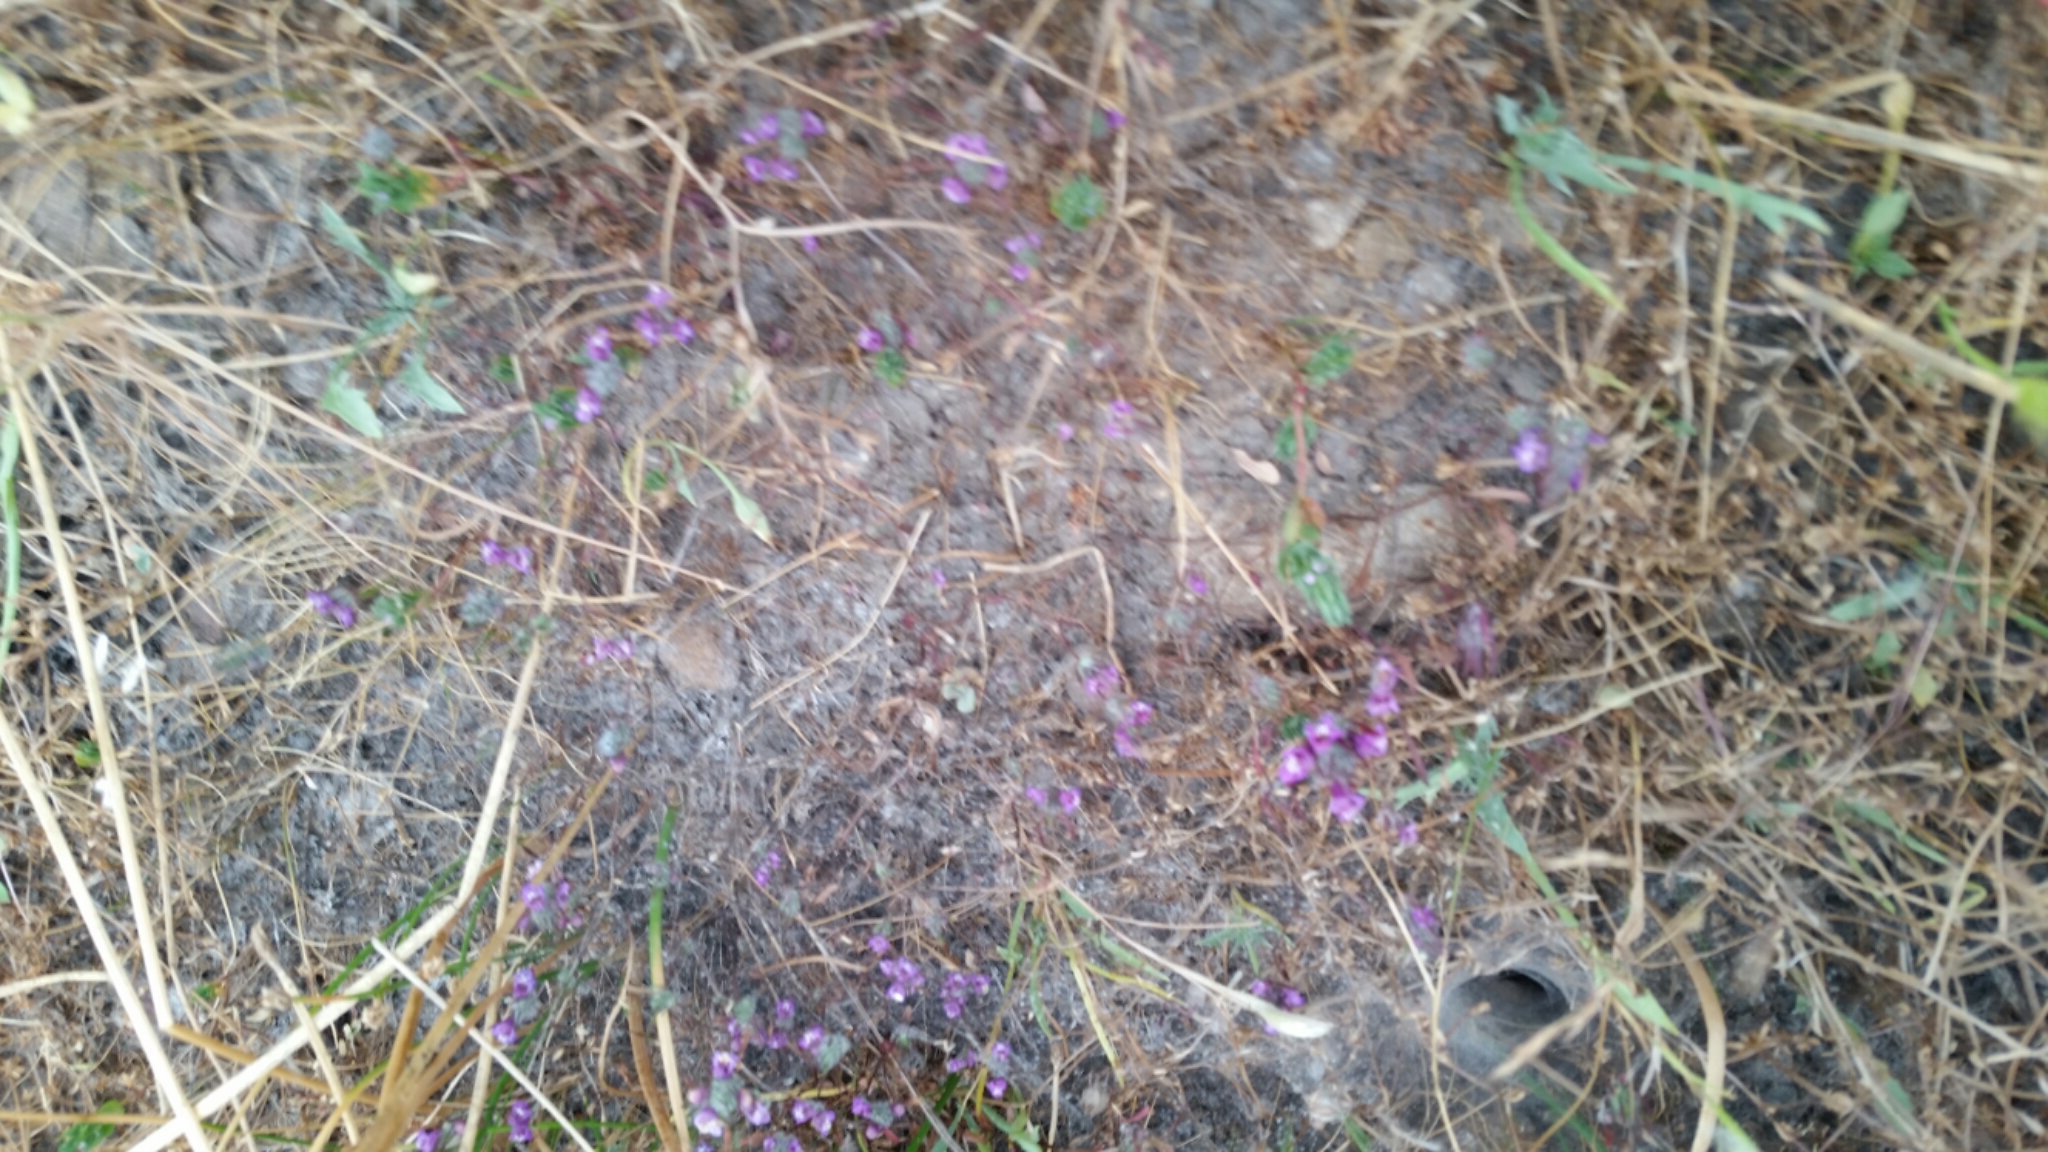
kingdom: Plantae
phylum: Tracheophyta
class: Magnoliopsida
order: Lamiales
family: Lamiaceae
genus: Pogogyne
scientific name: Pogogyne abramsii
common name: San diego mesa-mint
